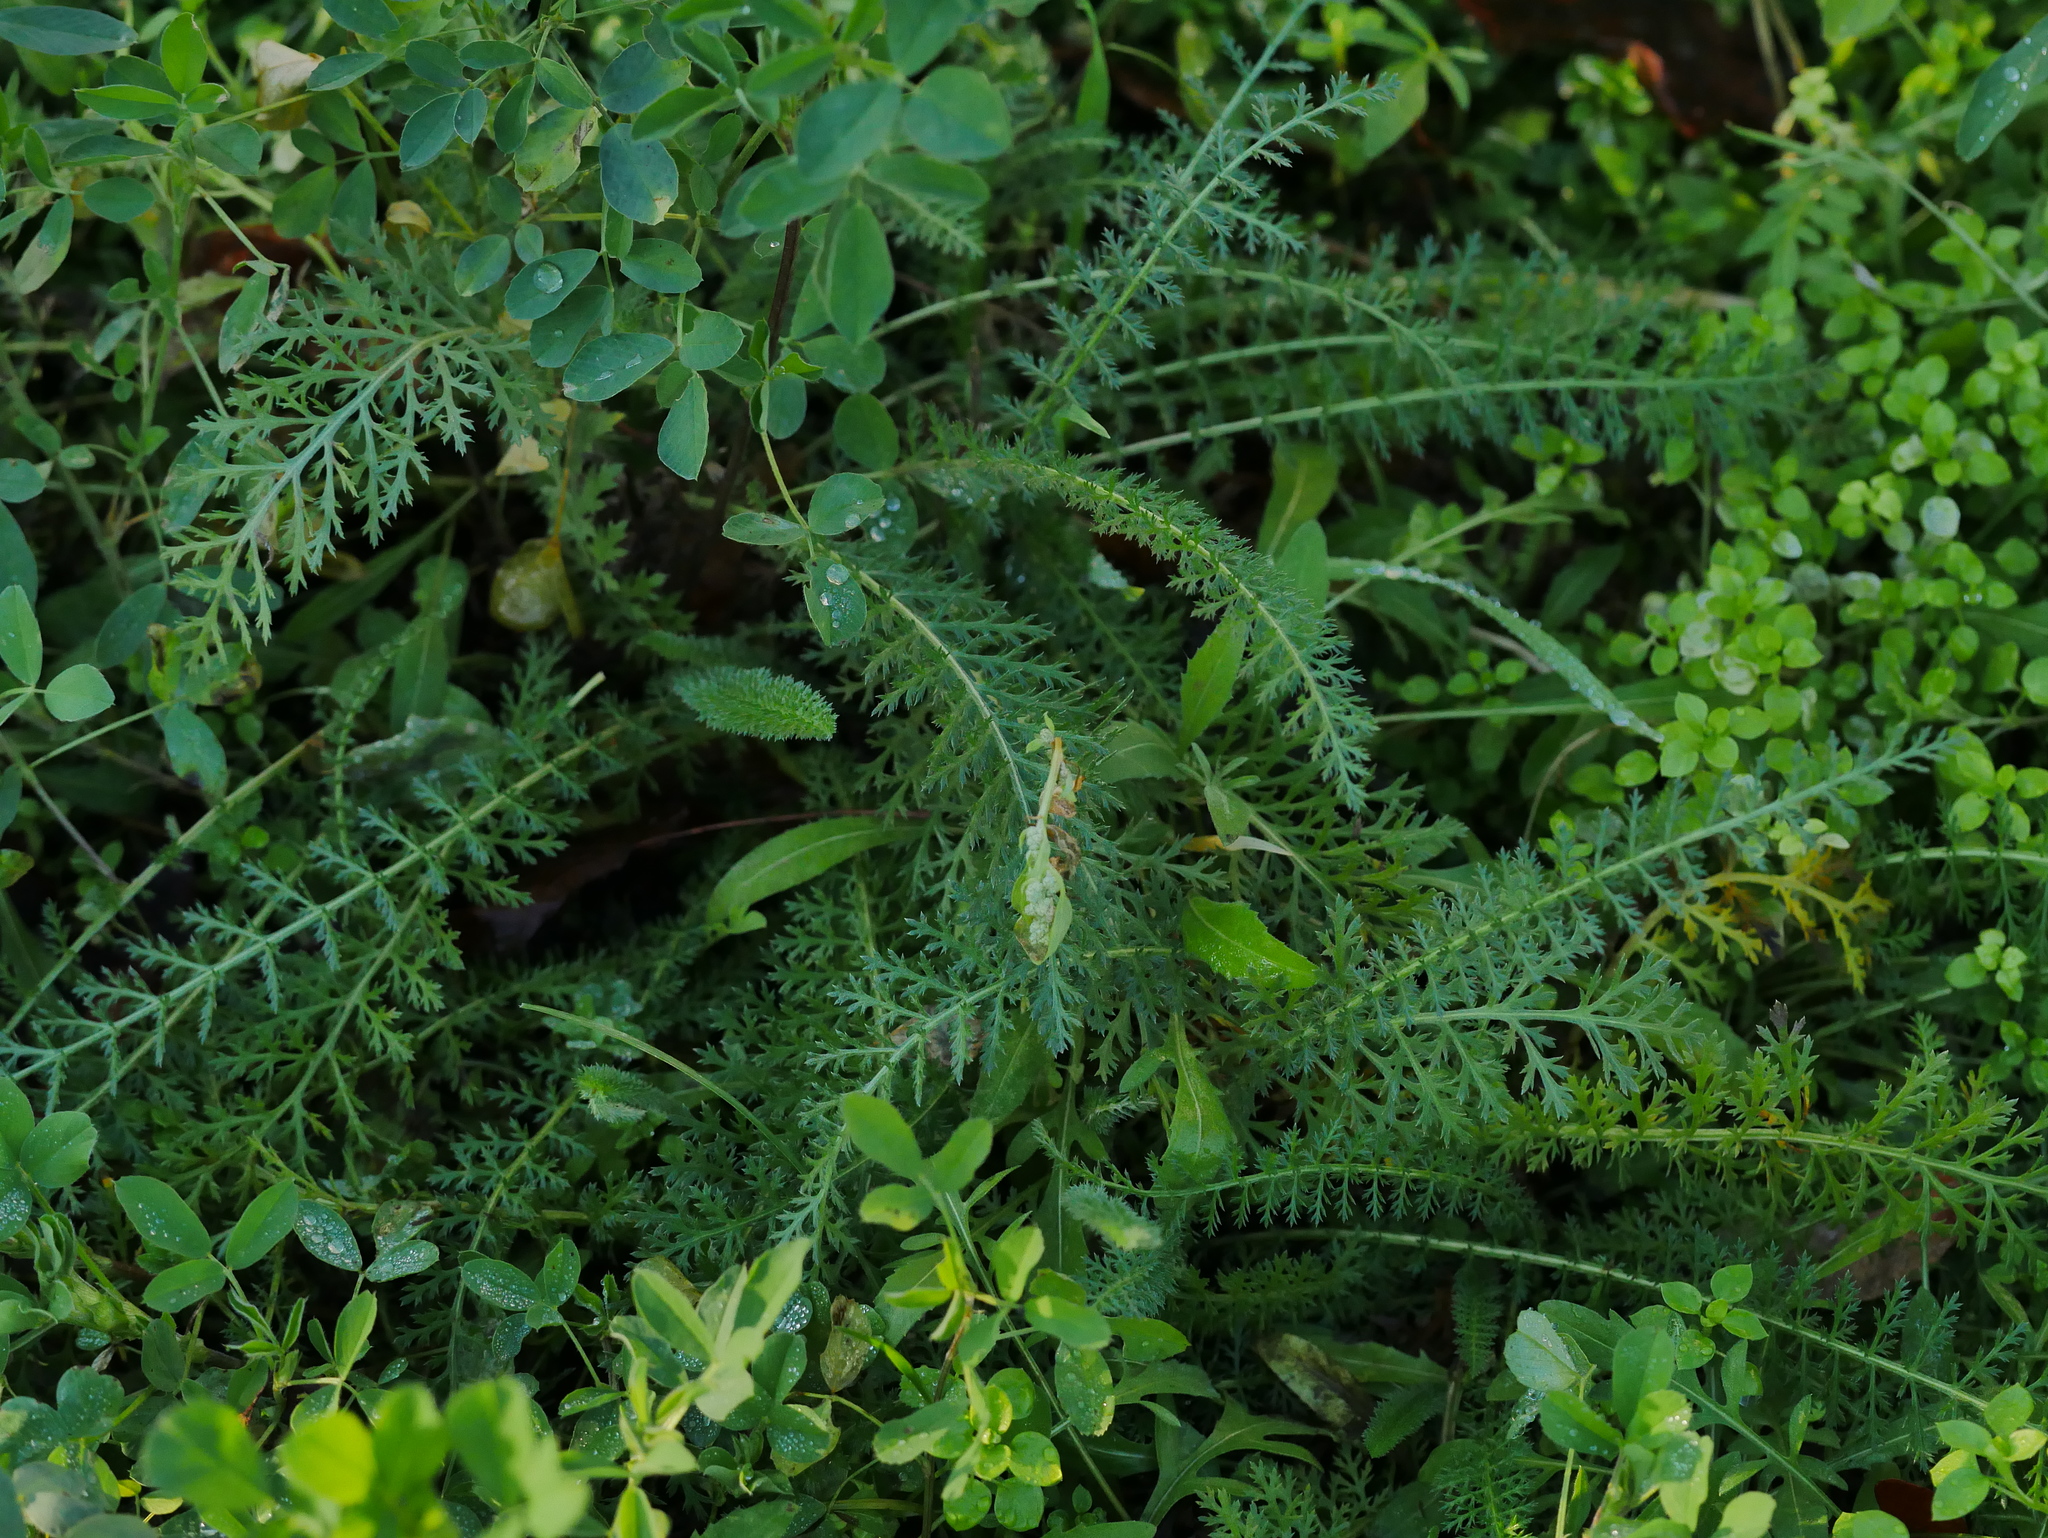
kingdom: Plantae
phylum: Tracheophyta
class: Magnoliopsida
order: Asterales
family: Asteraceae
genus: Achillea
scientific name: Achillea millefolium
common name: Yarrow
